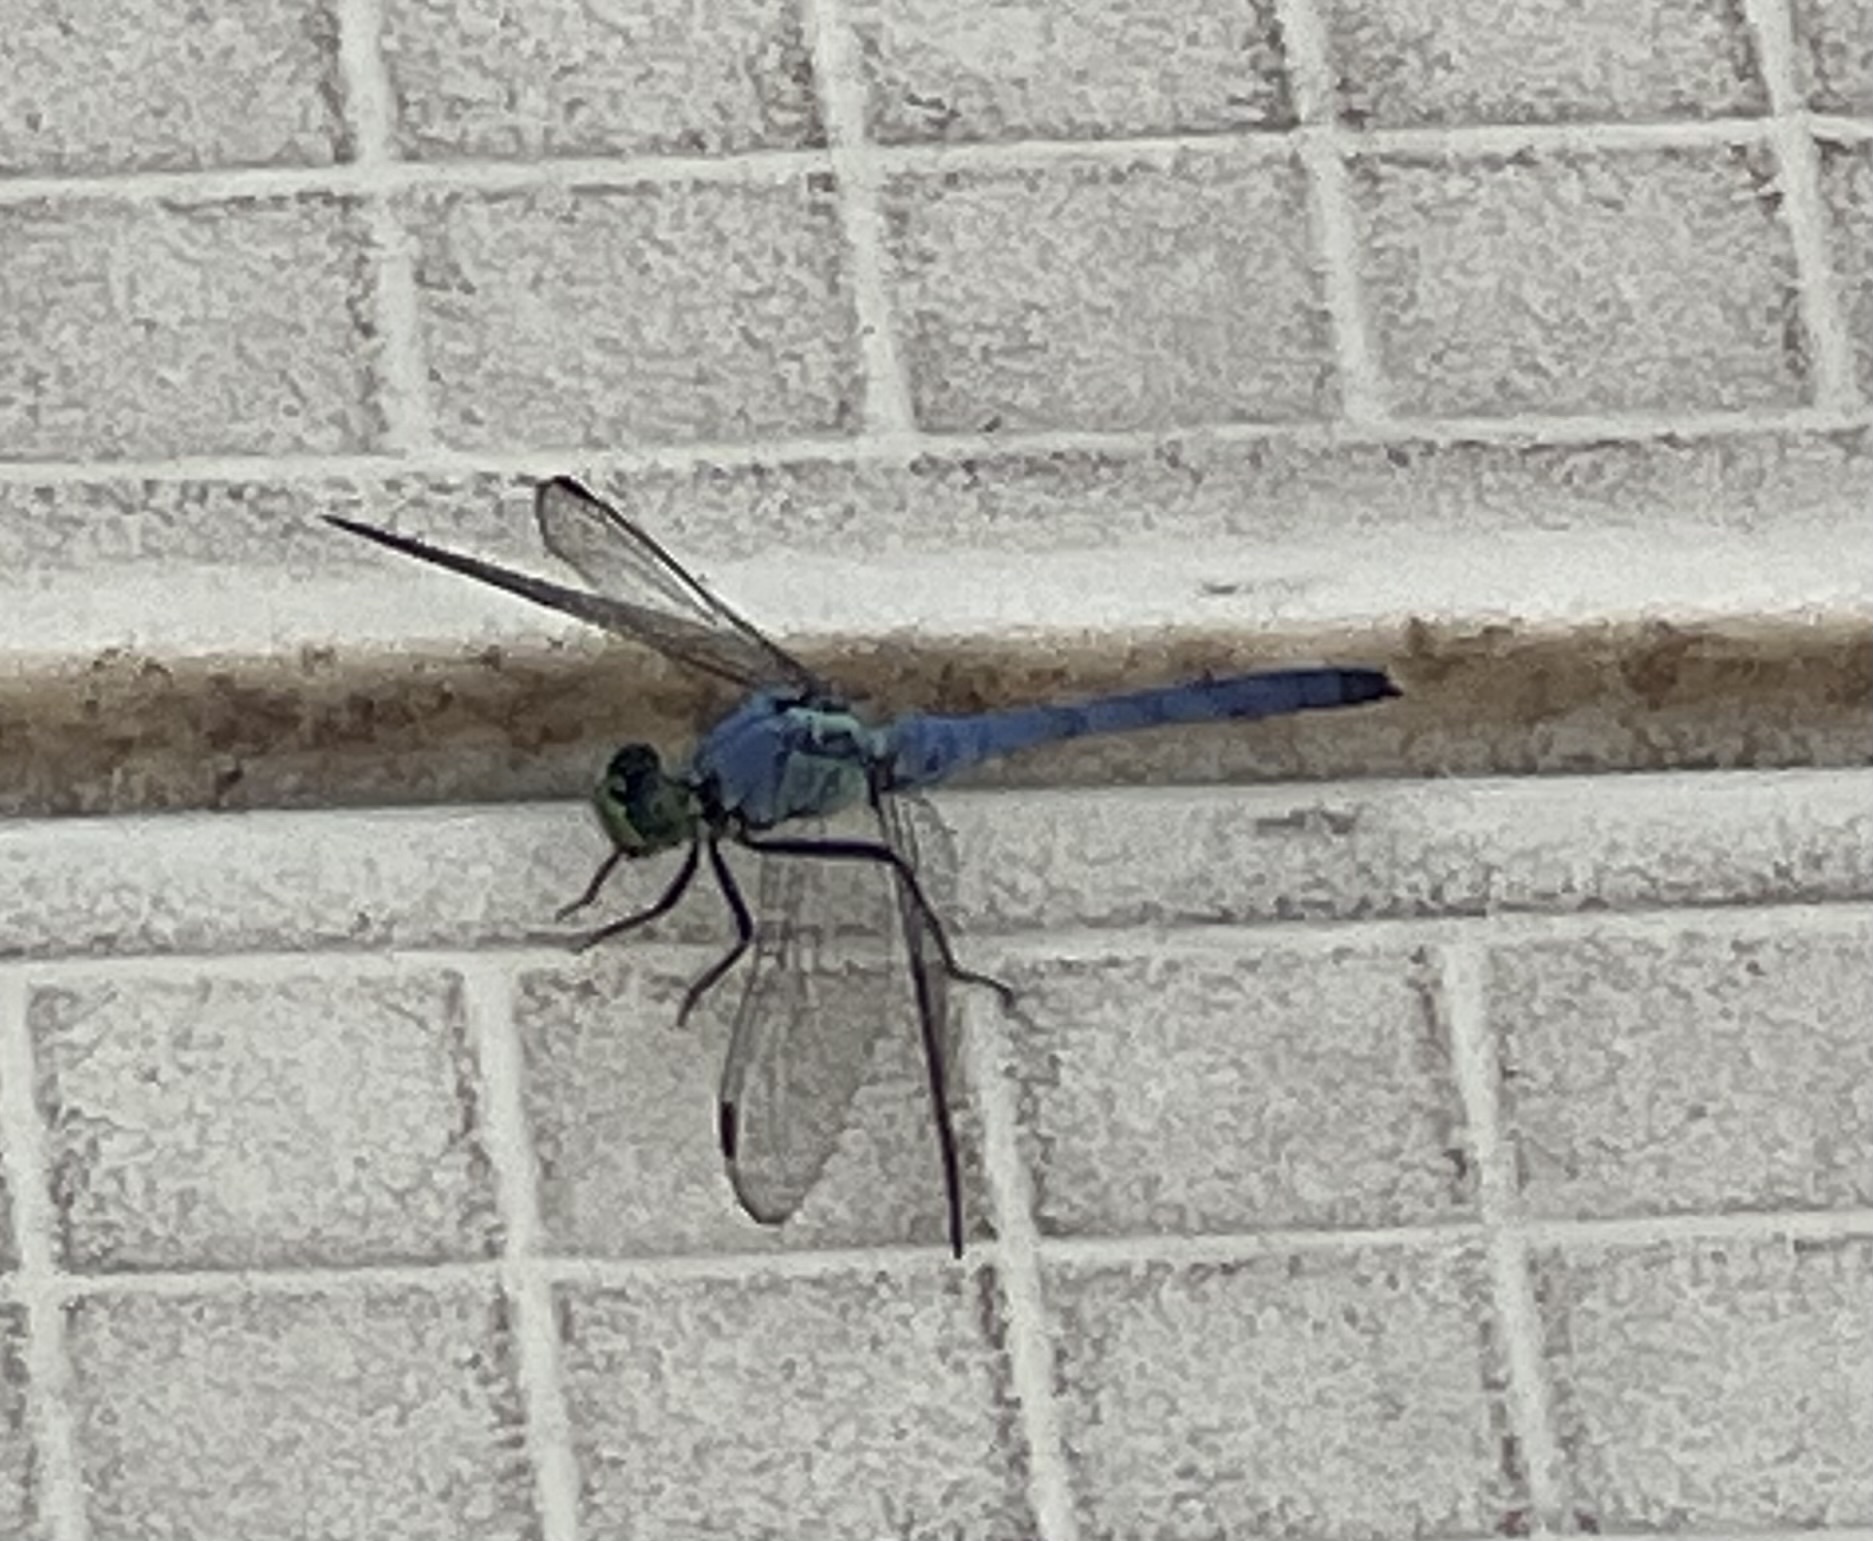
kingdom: Animalia
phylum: Arthropoda
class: Insecta
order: Odonata
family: Libellulidae
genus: Erythemis
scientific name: Erythemis simplicicollis
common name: Eastern pondhawk
